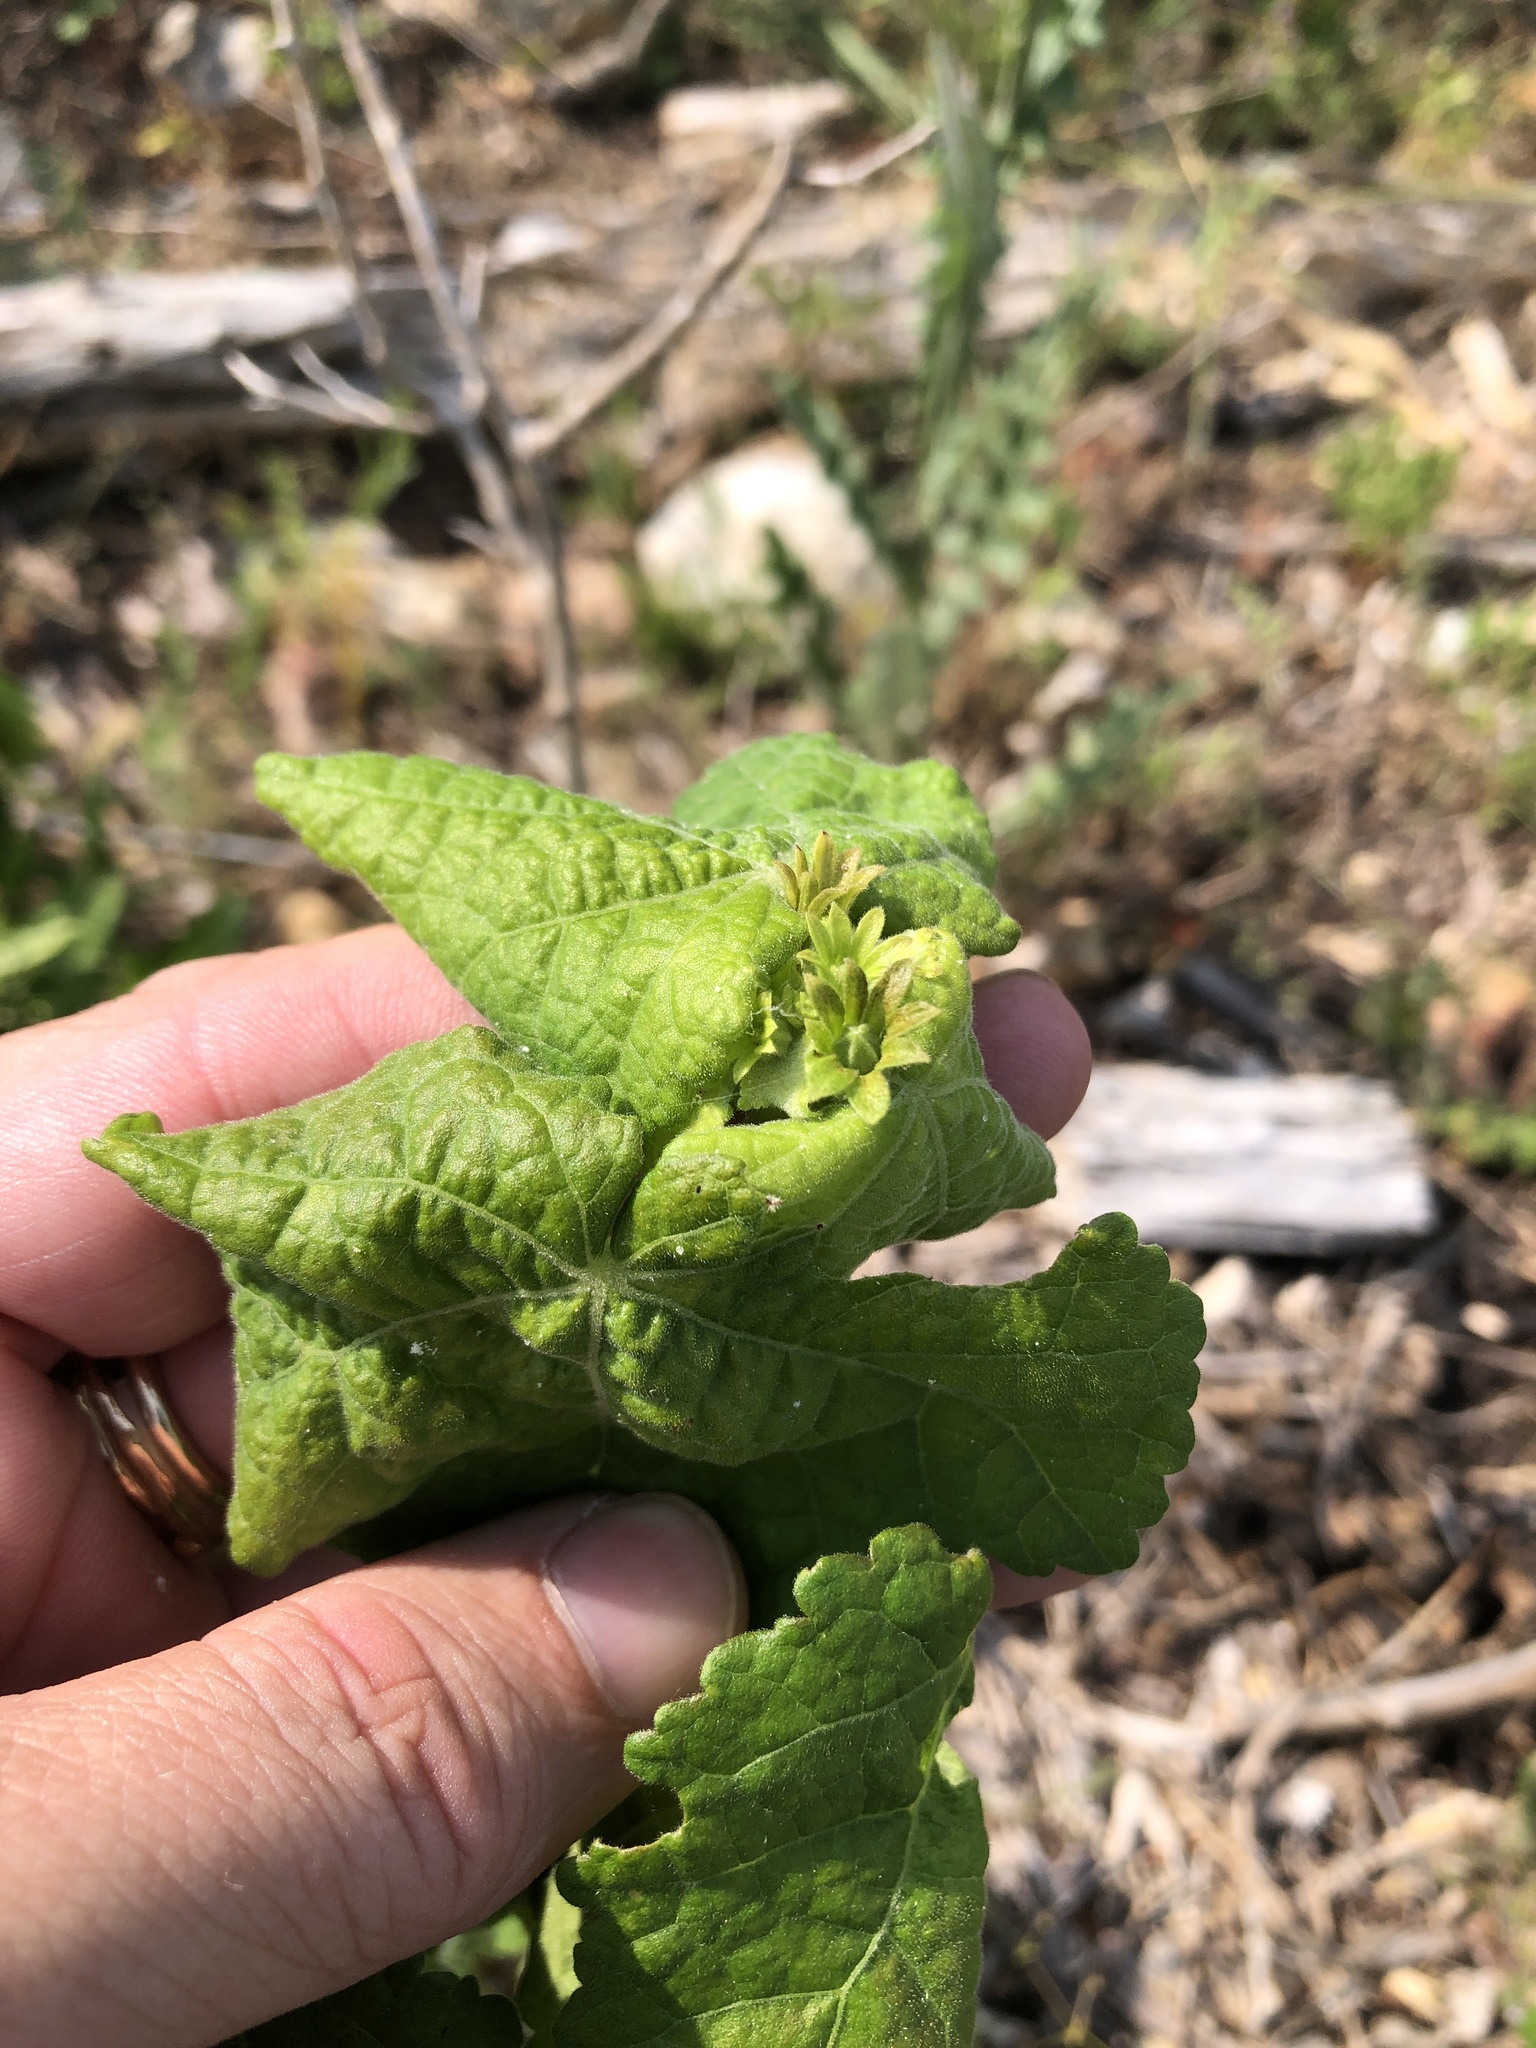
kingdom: Plantae
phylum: Tracheophyta
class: Magnoliopsida
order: Malvales
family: Malvaceae
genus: Malvaviscus
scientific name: Malvaviscus arboreus
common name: Wax mallow
